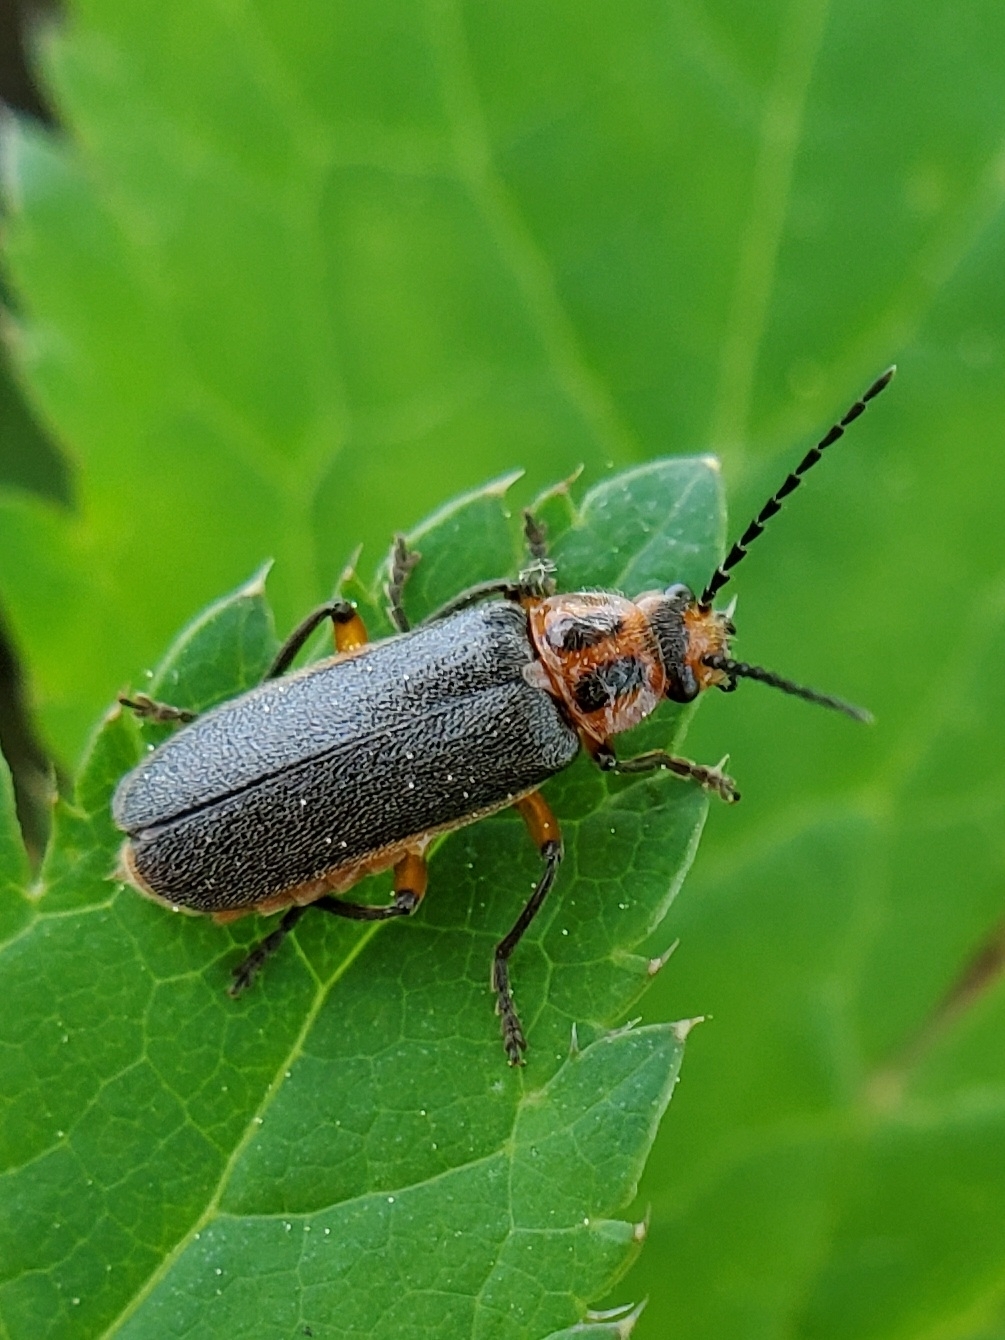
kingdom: Animalia
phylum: Arthropoda
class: Insecta
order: Coleoptera
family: Cantharidae
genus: Atalantycha
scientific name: Atalantycha bilineata
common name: Two-lined leatherwing
